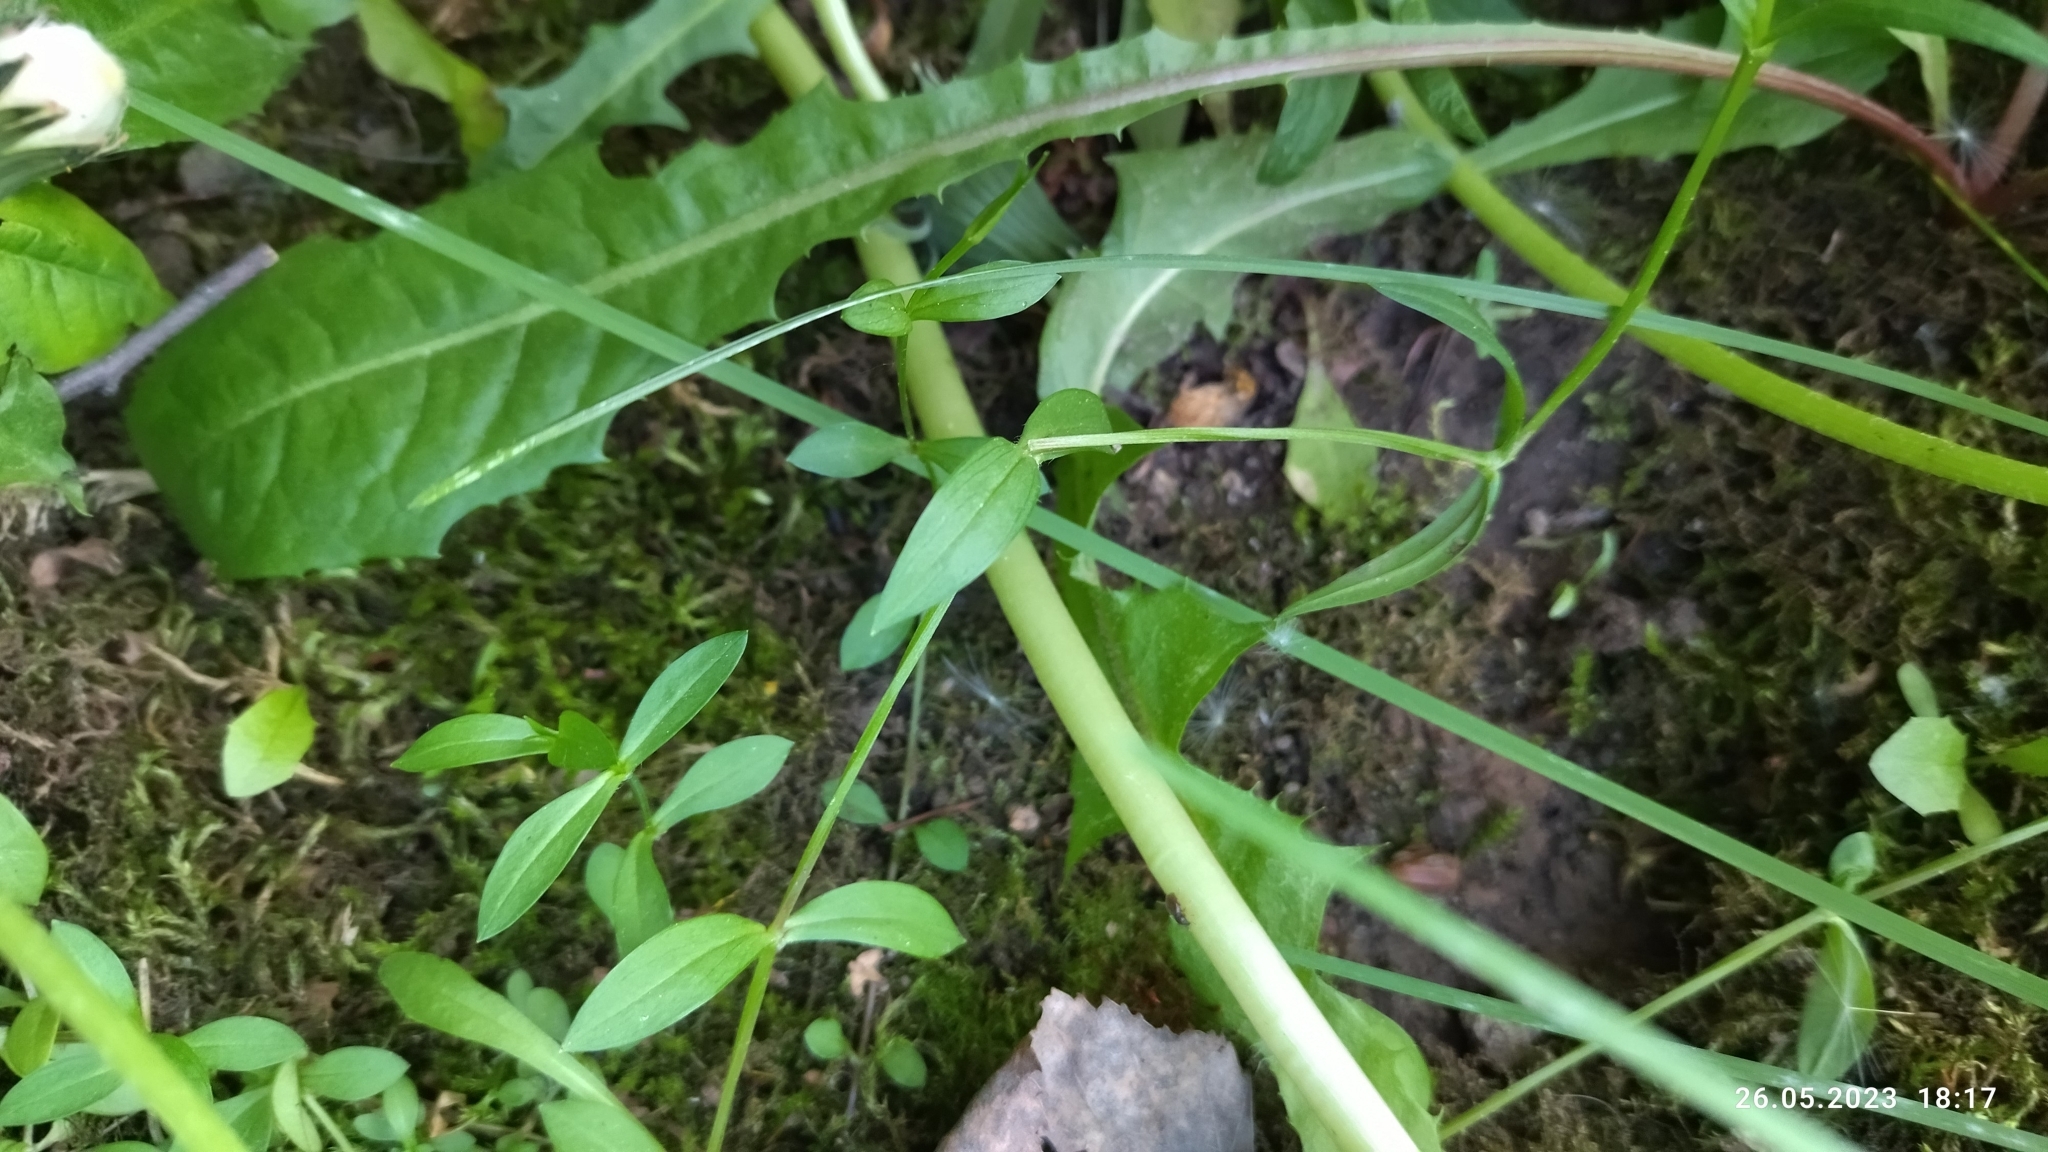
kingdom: Plantae
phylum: Tracheophyta
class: Magnoliopsida
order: Caryophyllales
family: Caryophyllaceae
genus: Stellaria
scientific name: Stellaria graminea
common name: Grass-like starwort
